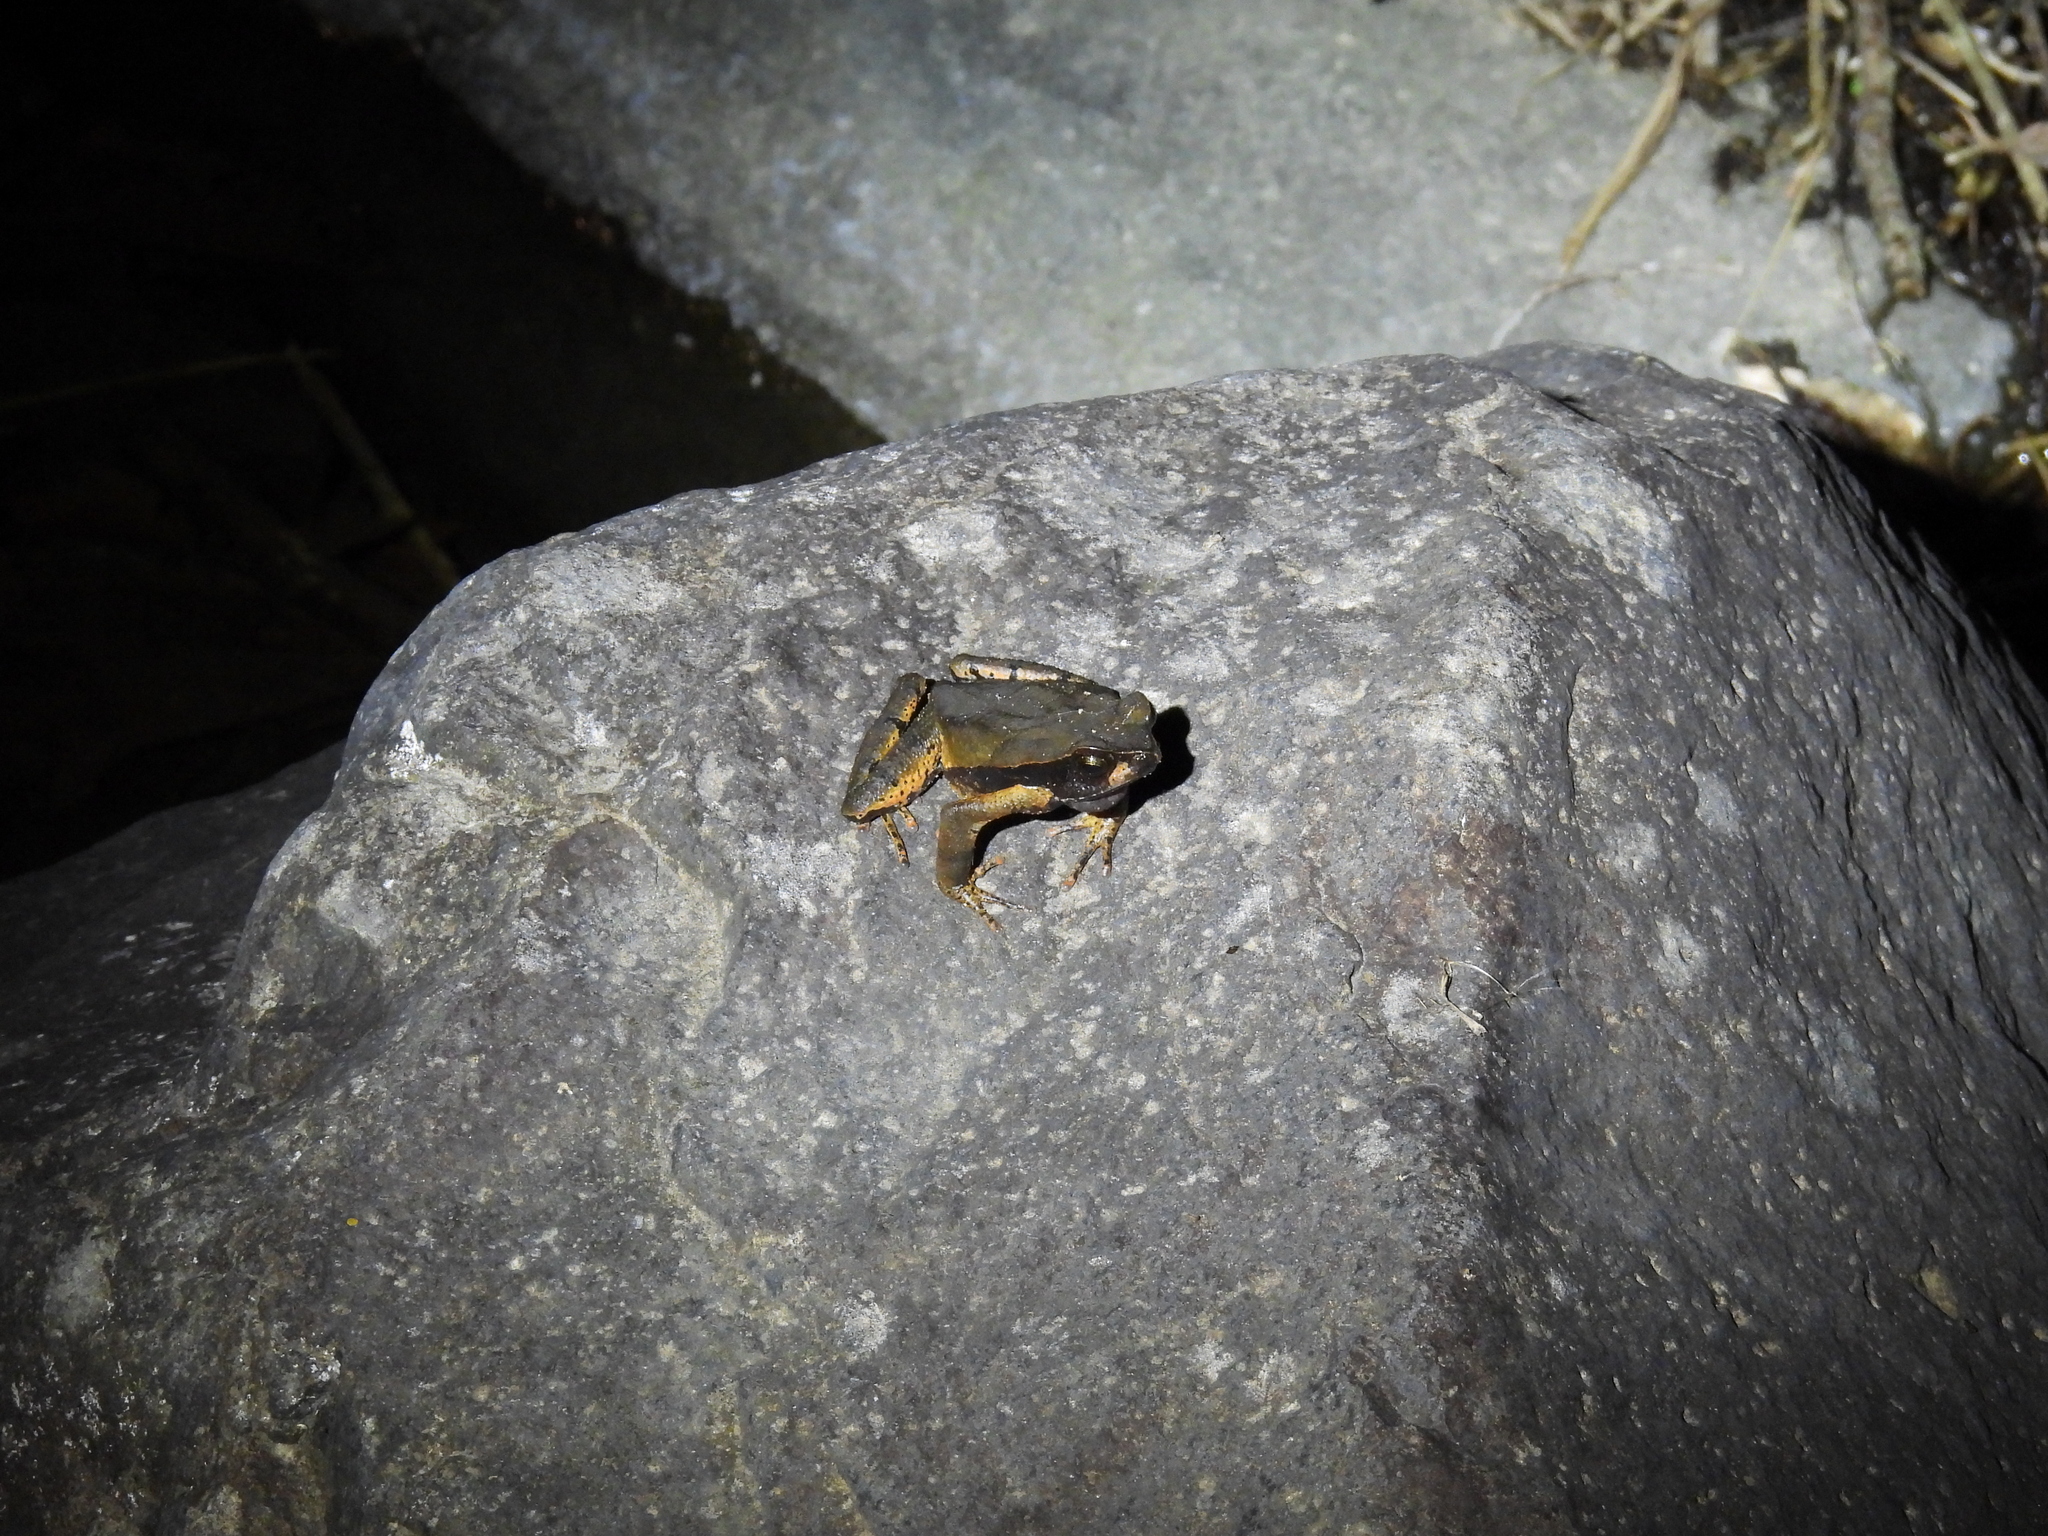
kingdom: Animalia
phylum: Chordata
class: Amphibia
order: Anura
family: Bufonidae
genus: Rhaebo
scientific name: Rhaebo haematiticus
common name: Truando toad
